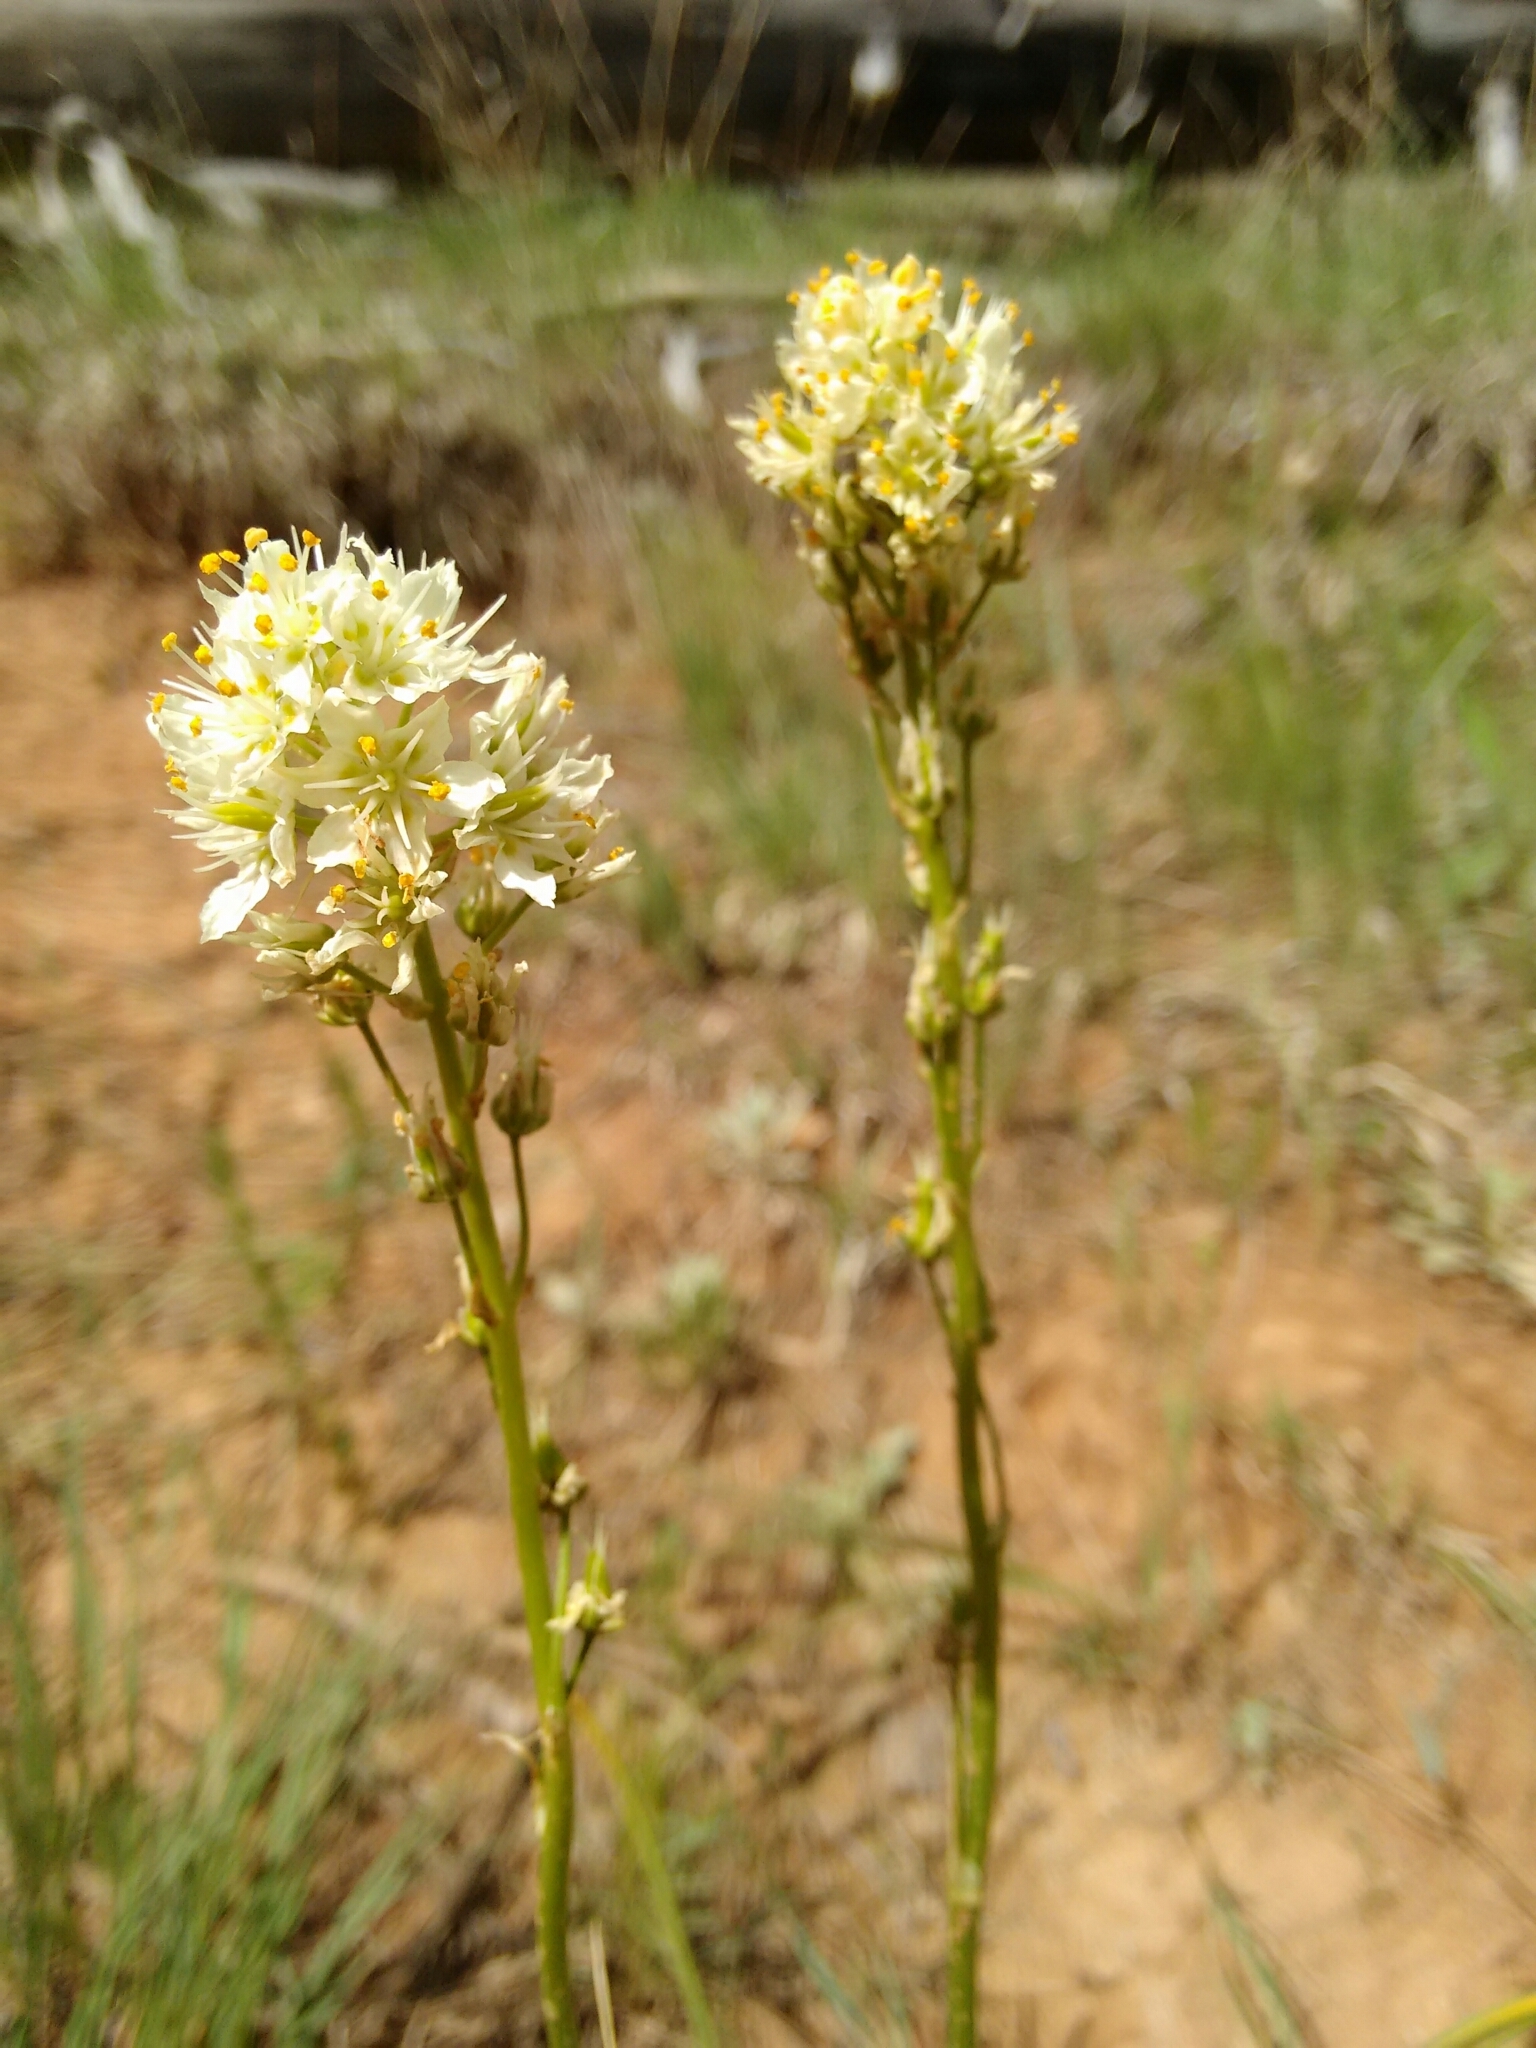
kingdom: Plantae
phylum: Tracheophyta
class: Liliopsida
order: Liliales
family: Melanthiaceae
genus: Toxicoscordion
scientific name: Toxicoscordion venenosum
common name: Meadow death camas
